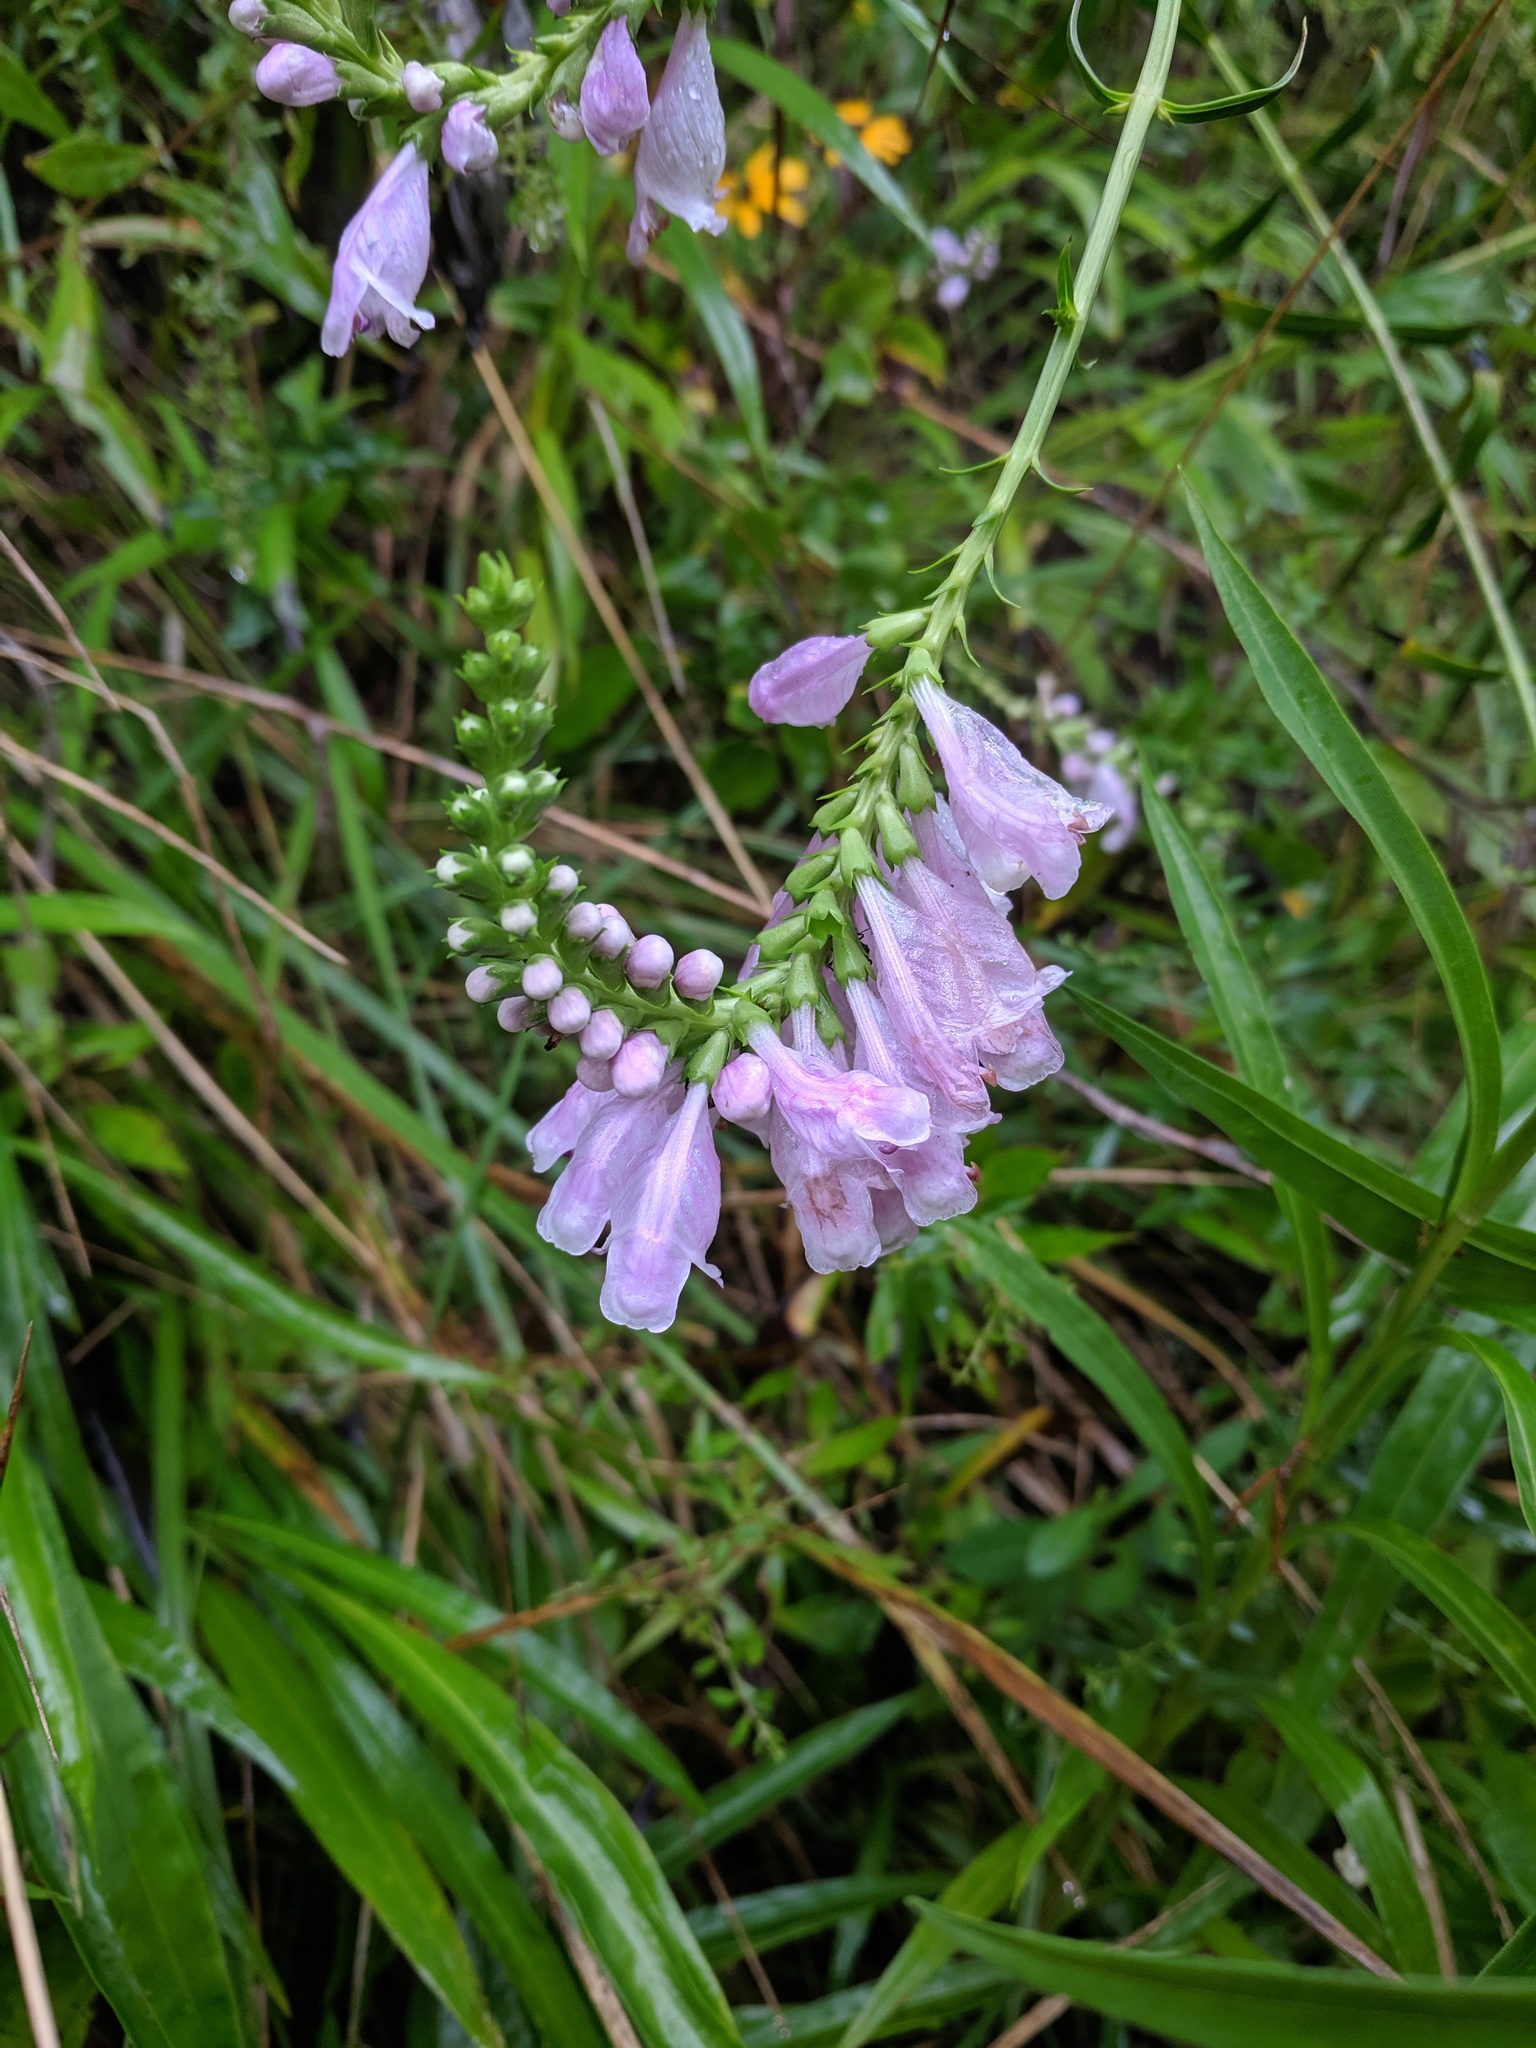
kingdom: Plantae
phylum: Tracheophyta
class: Magnoliopsida
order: Lamiales
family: Lamiaceae
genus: Physostegia
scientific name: Physostegia virginiana
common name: Obedient-plant
